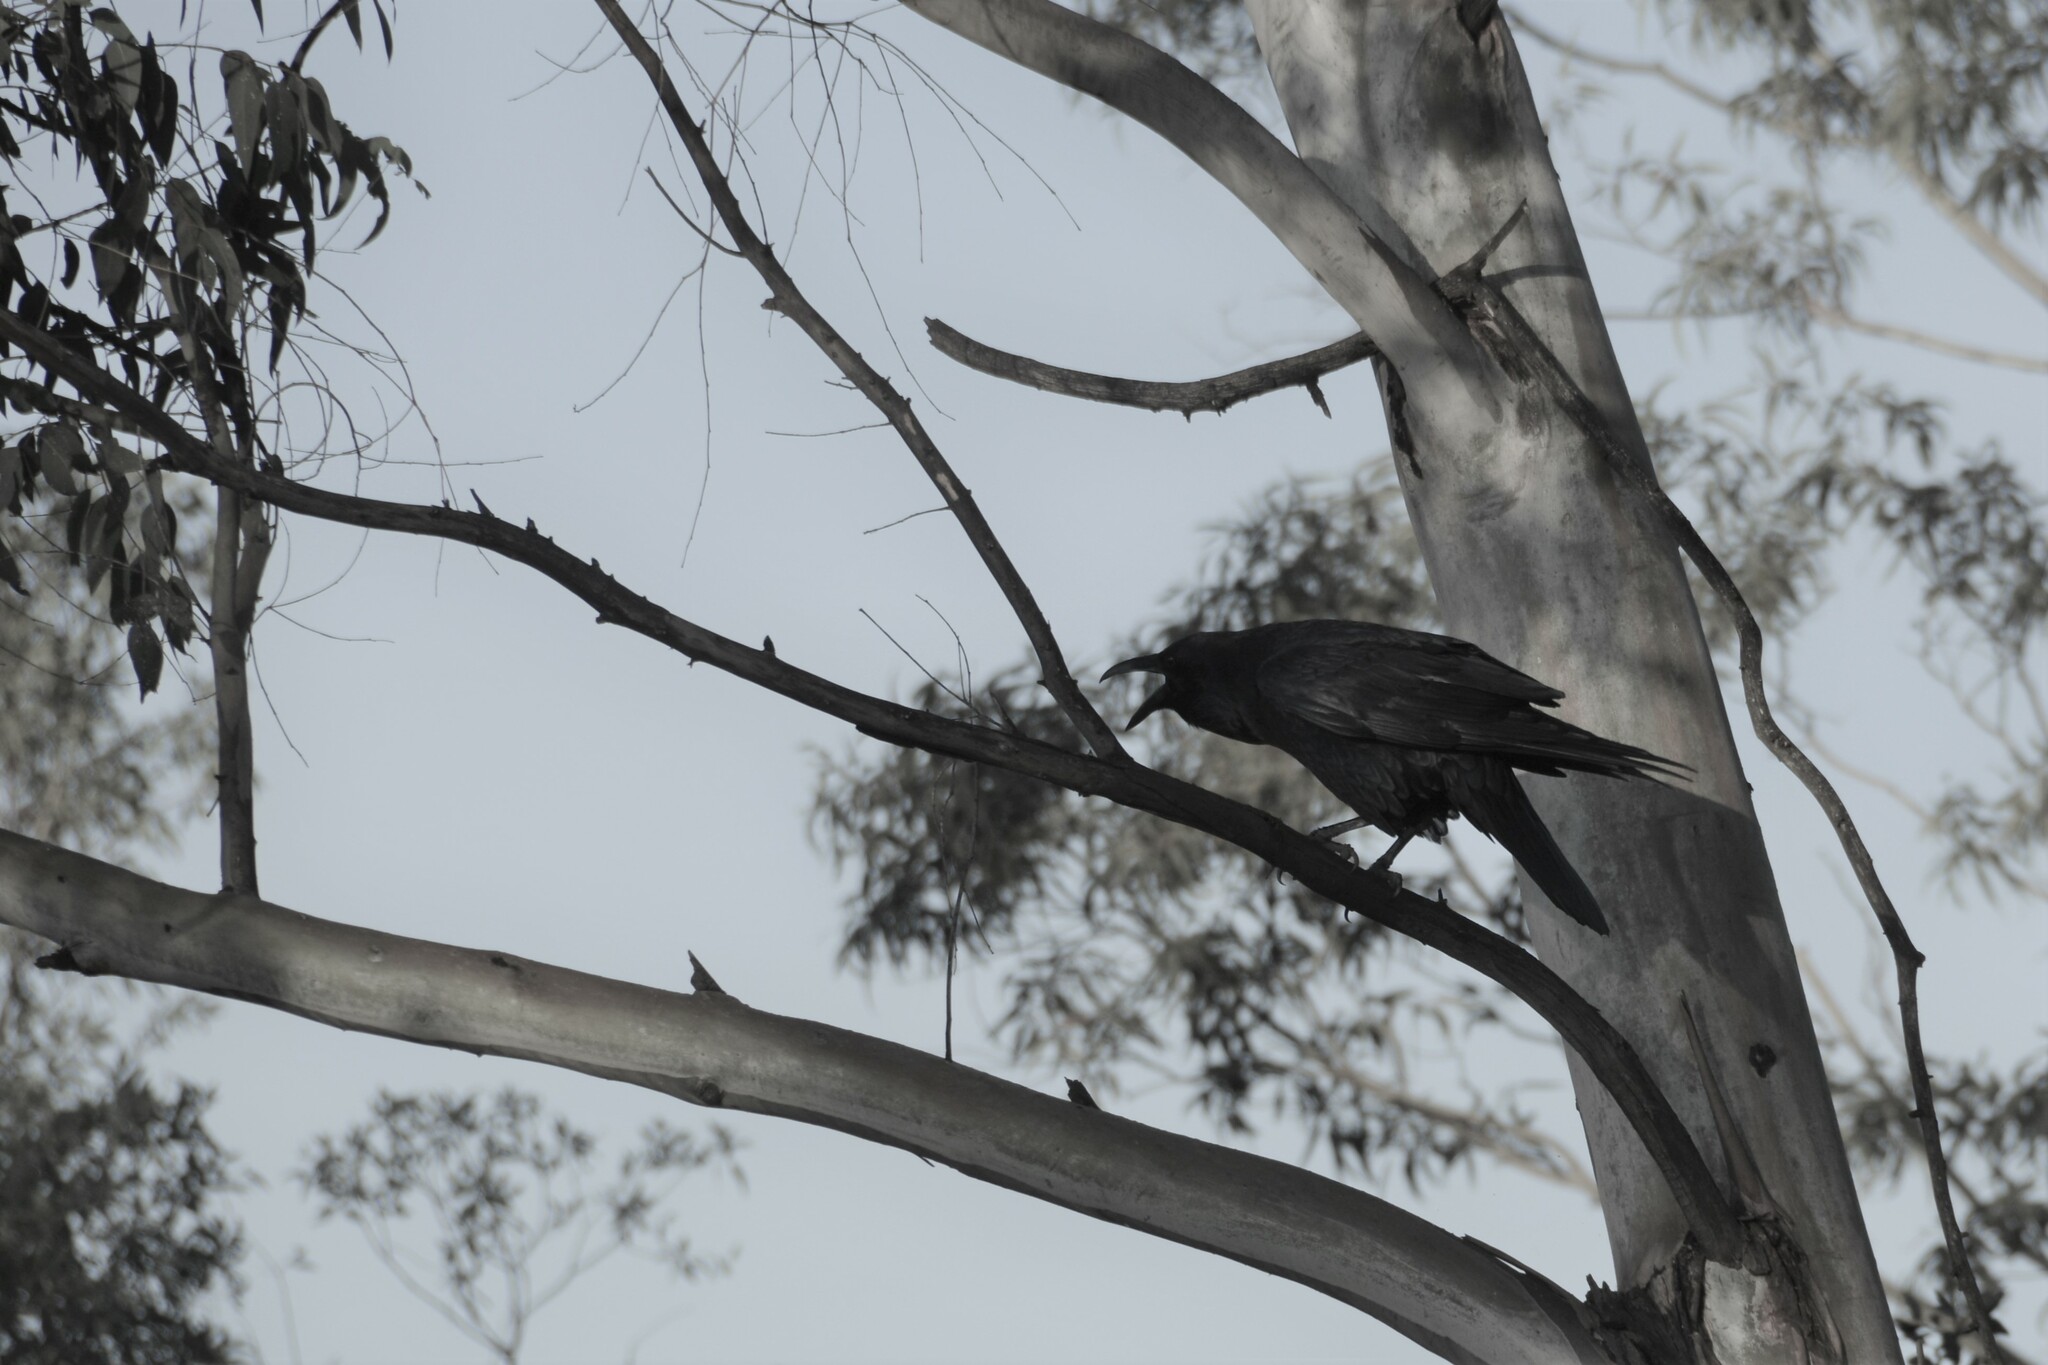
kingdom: Animalia
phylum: Chordata
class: Aves
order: Passeriformes
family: Corvidae
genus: Corvus
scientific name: Corvus corax
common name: Common raven
